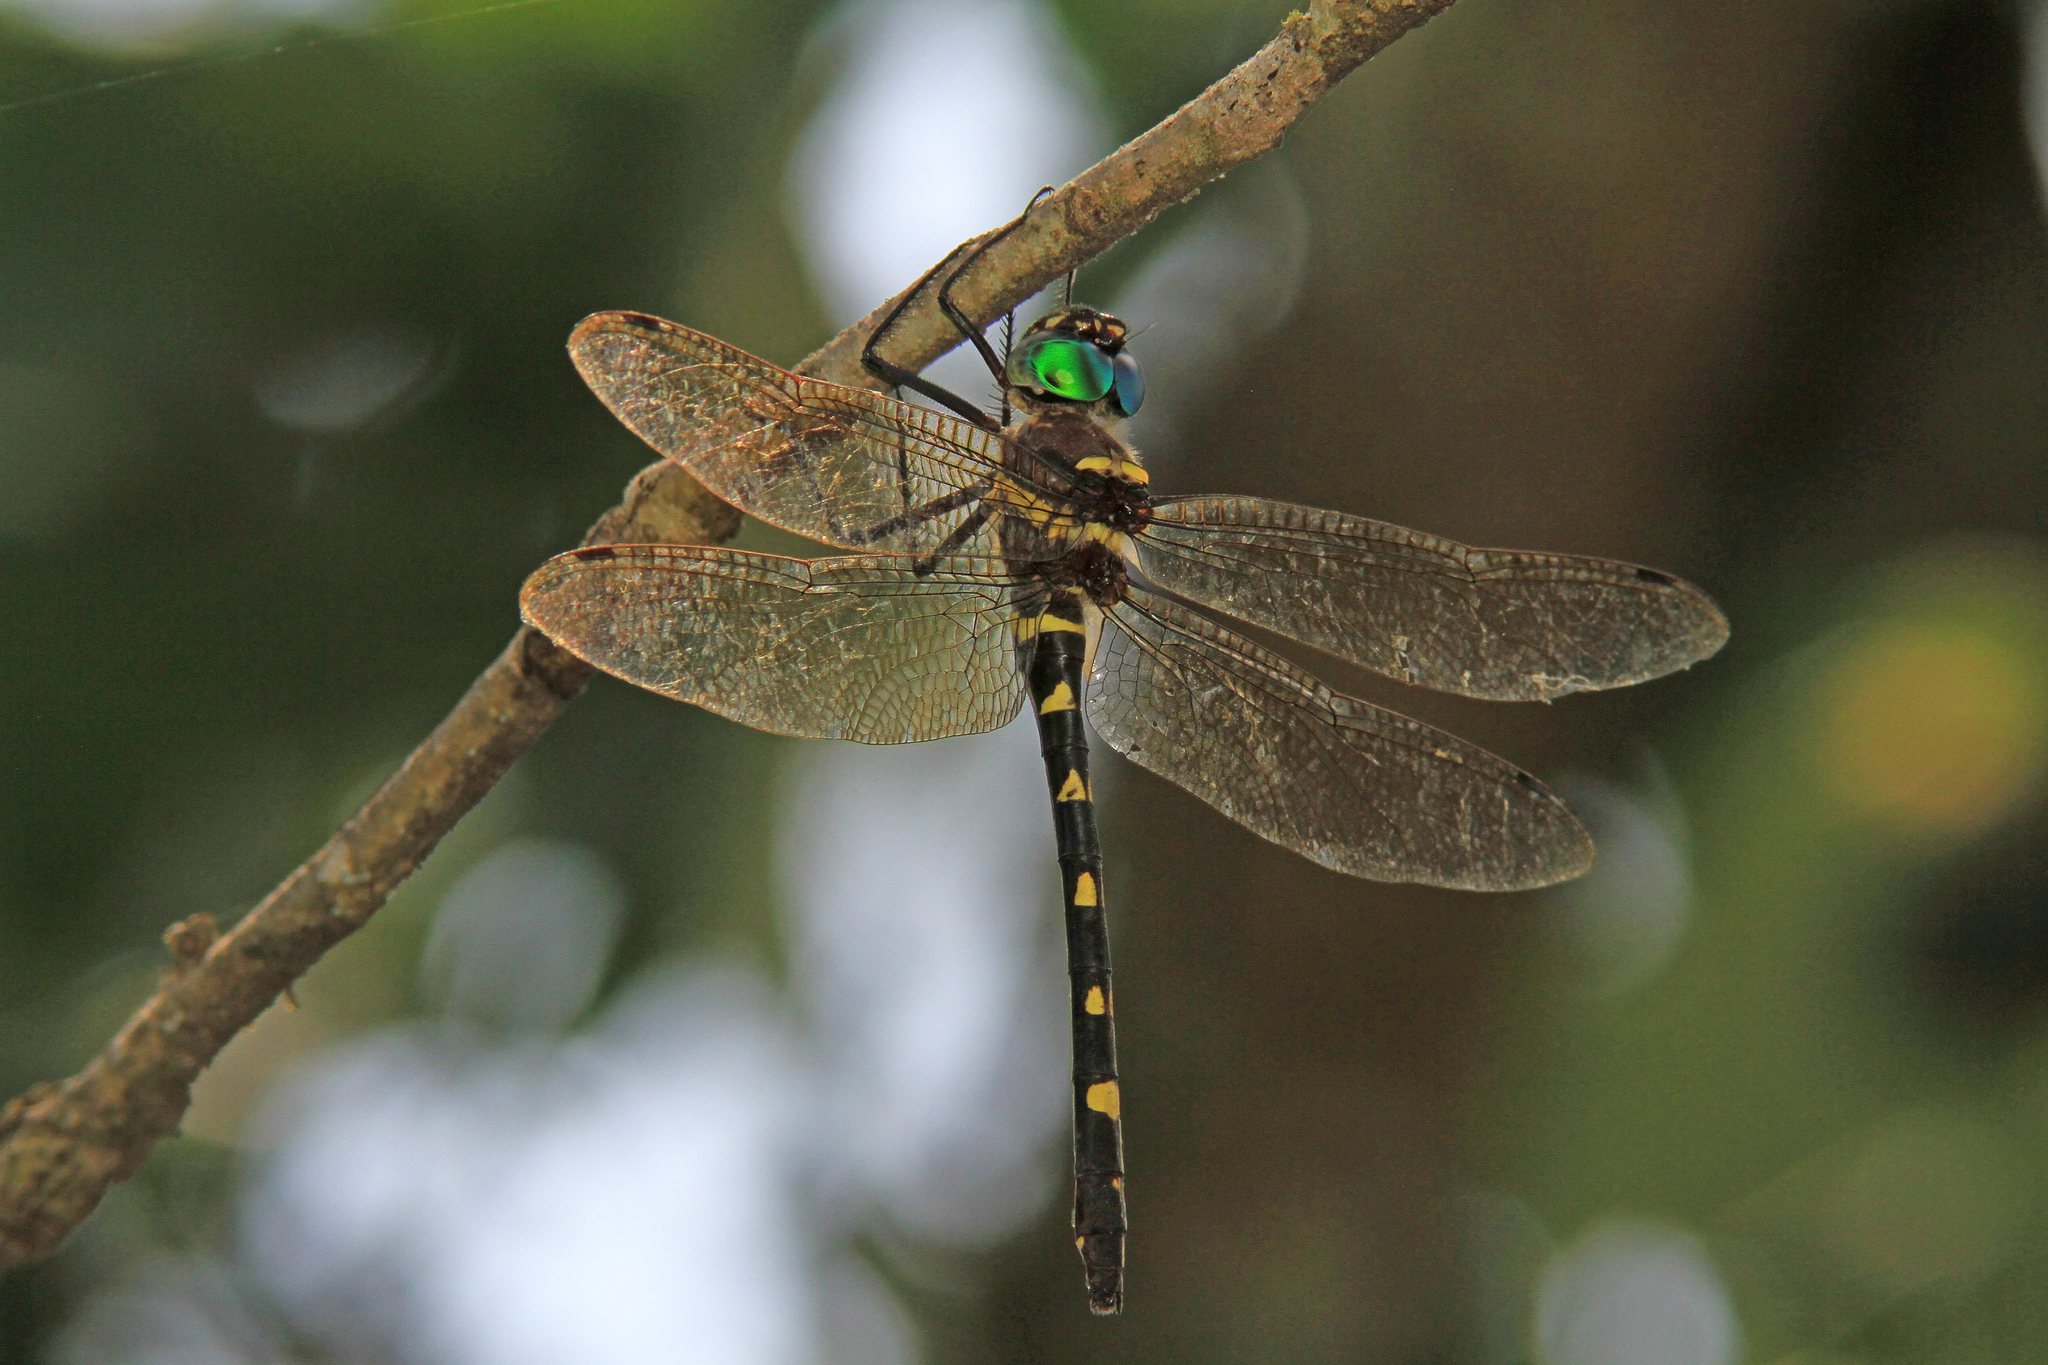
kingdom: Animalia
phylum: Arthropoda
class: Insecta
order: Odonata
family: Macromiidae
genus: Macromia
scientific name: Macromia illinoiensis
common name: Swift river cruiser
